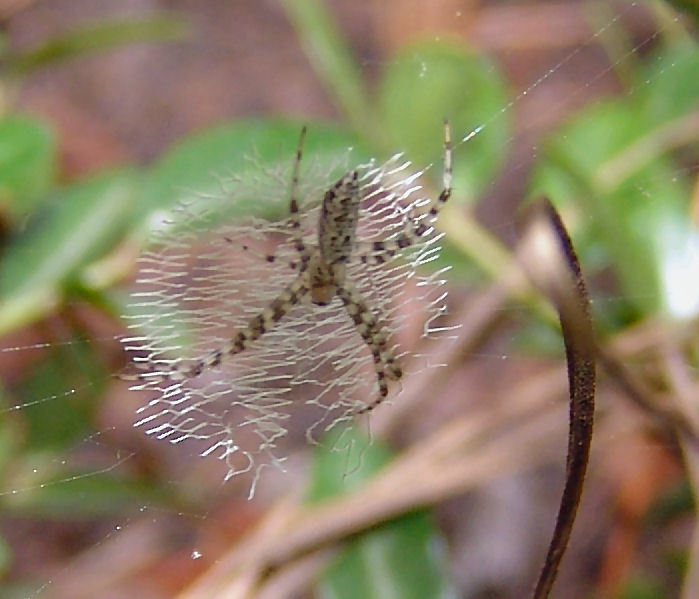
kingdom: Animalia
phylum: Arthropoda
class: Arachnida
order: Araneae
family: Araneidae
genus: Argiope
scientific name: Argiope aurantia
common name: Orb weavers
